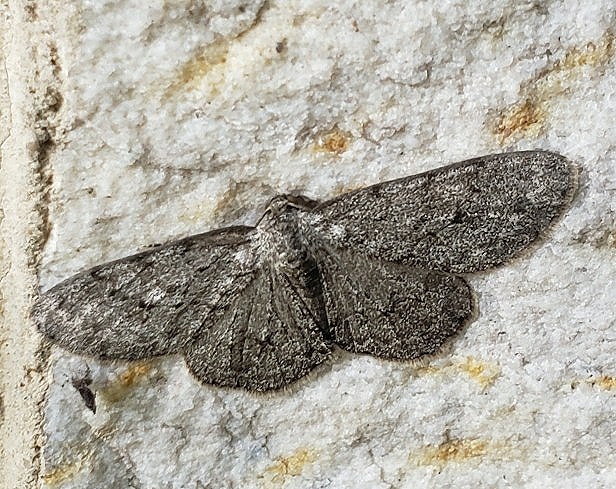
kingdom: Animalia
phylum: Arthropoda
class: Insecta
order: Lepidoptera
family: Geometridae
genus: Ectropis
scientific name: Ectropis crepuscularia
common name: Engrailed
